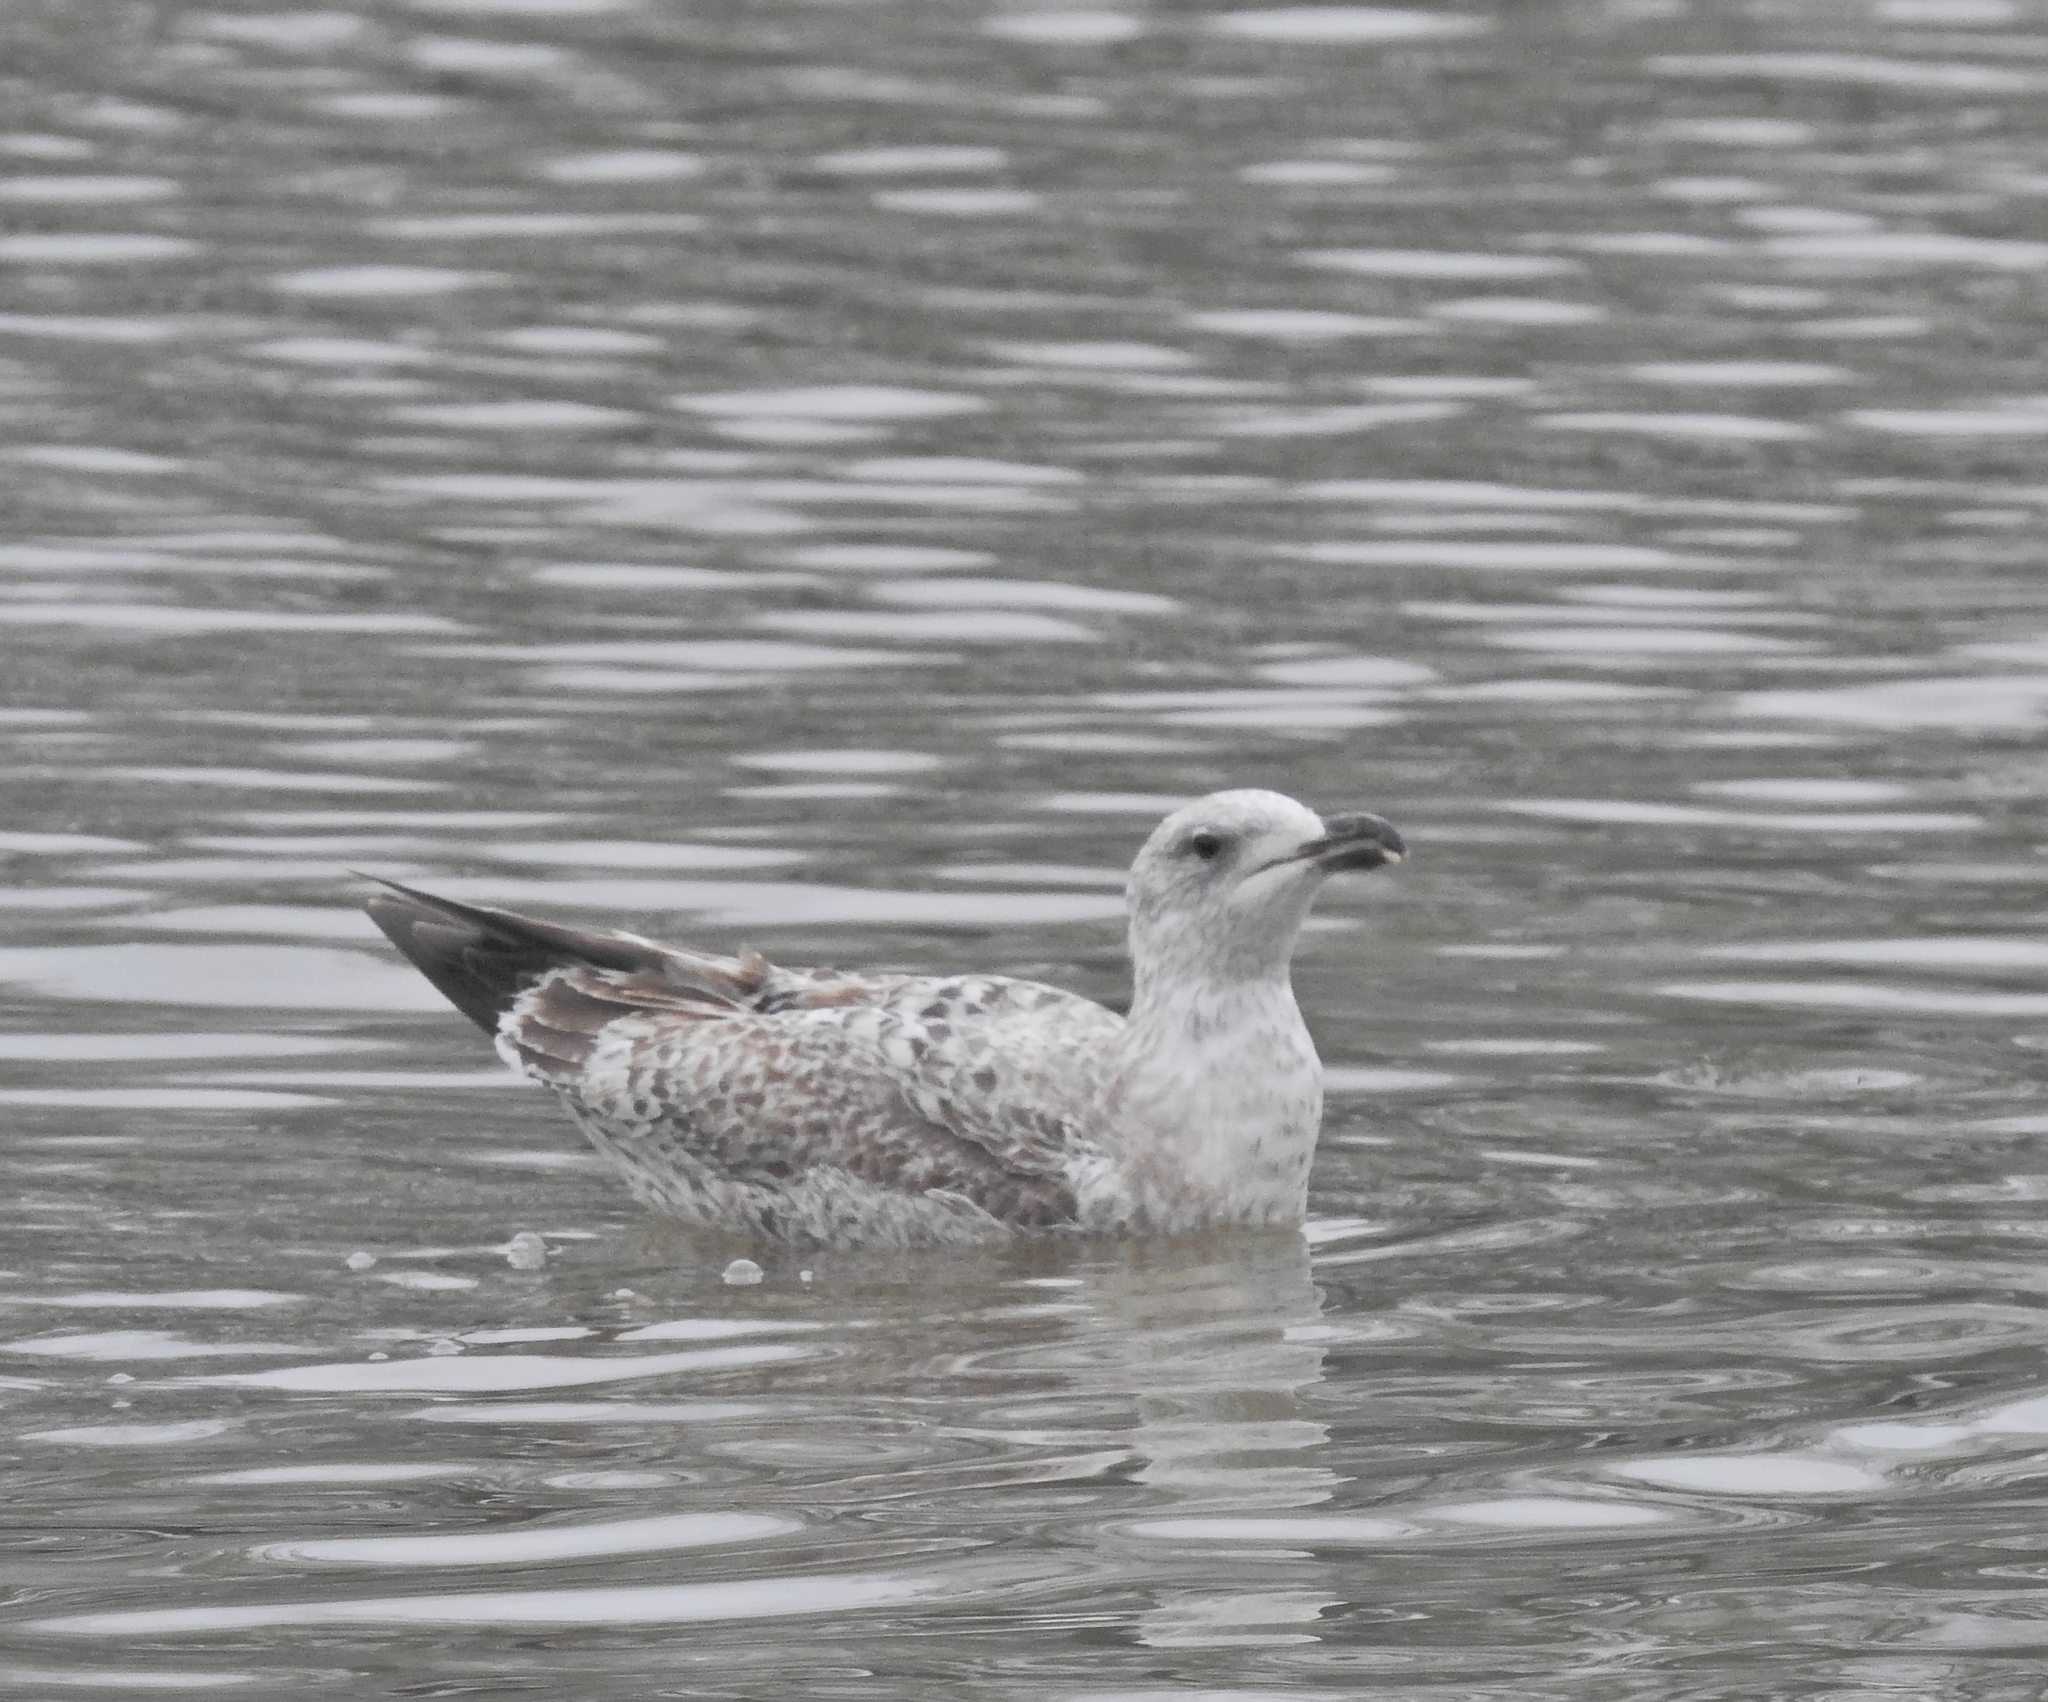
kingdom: Animalia
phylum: Chordata
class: Aves
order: Charadriiformes
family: Laridae
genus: Larus
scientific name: Larus argentatus
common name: Herring gull
